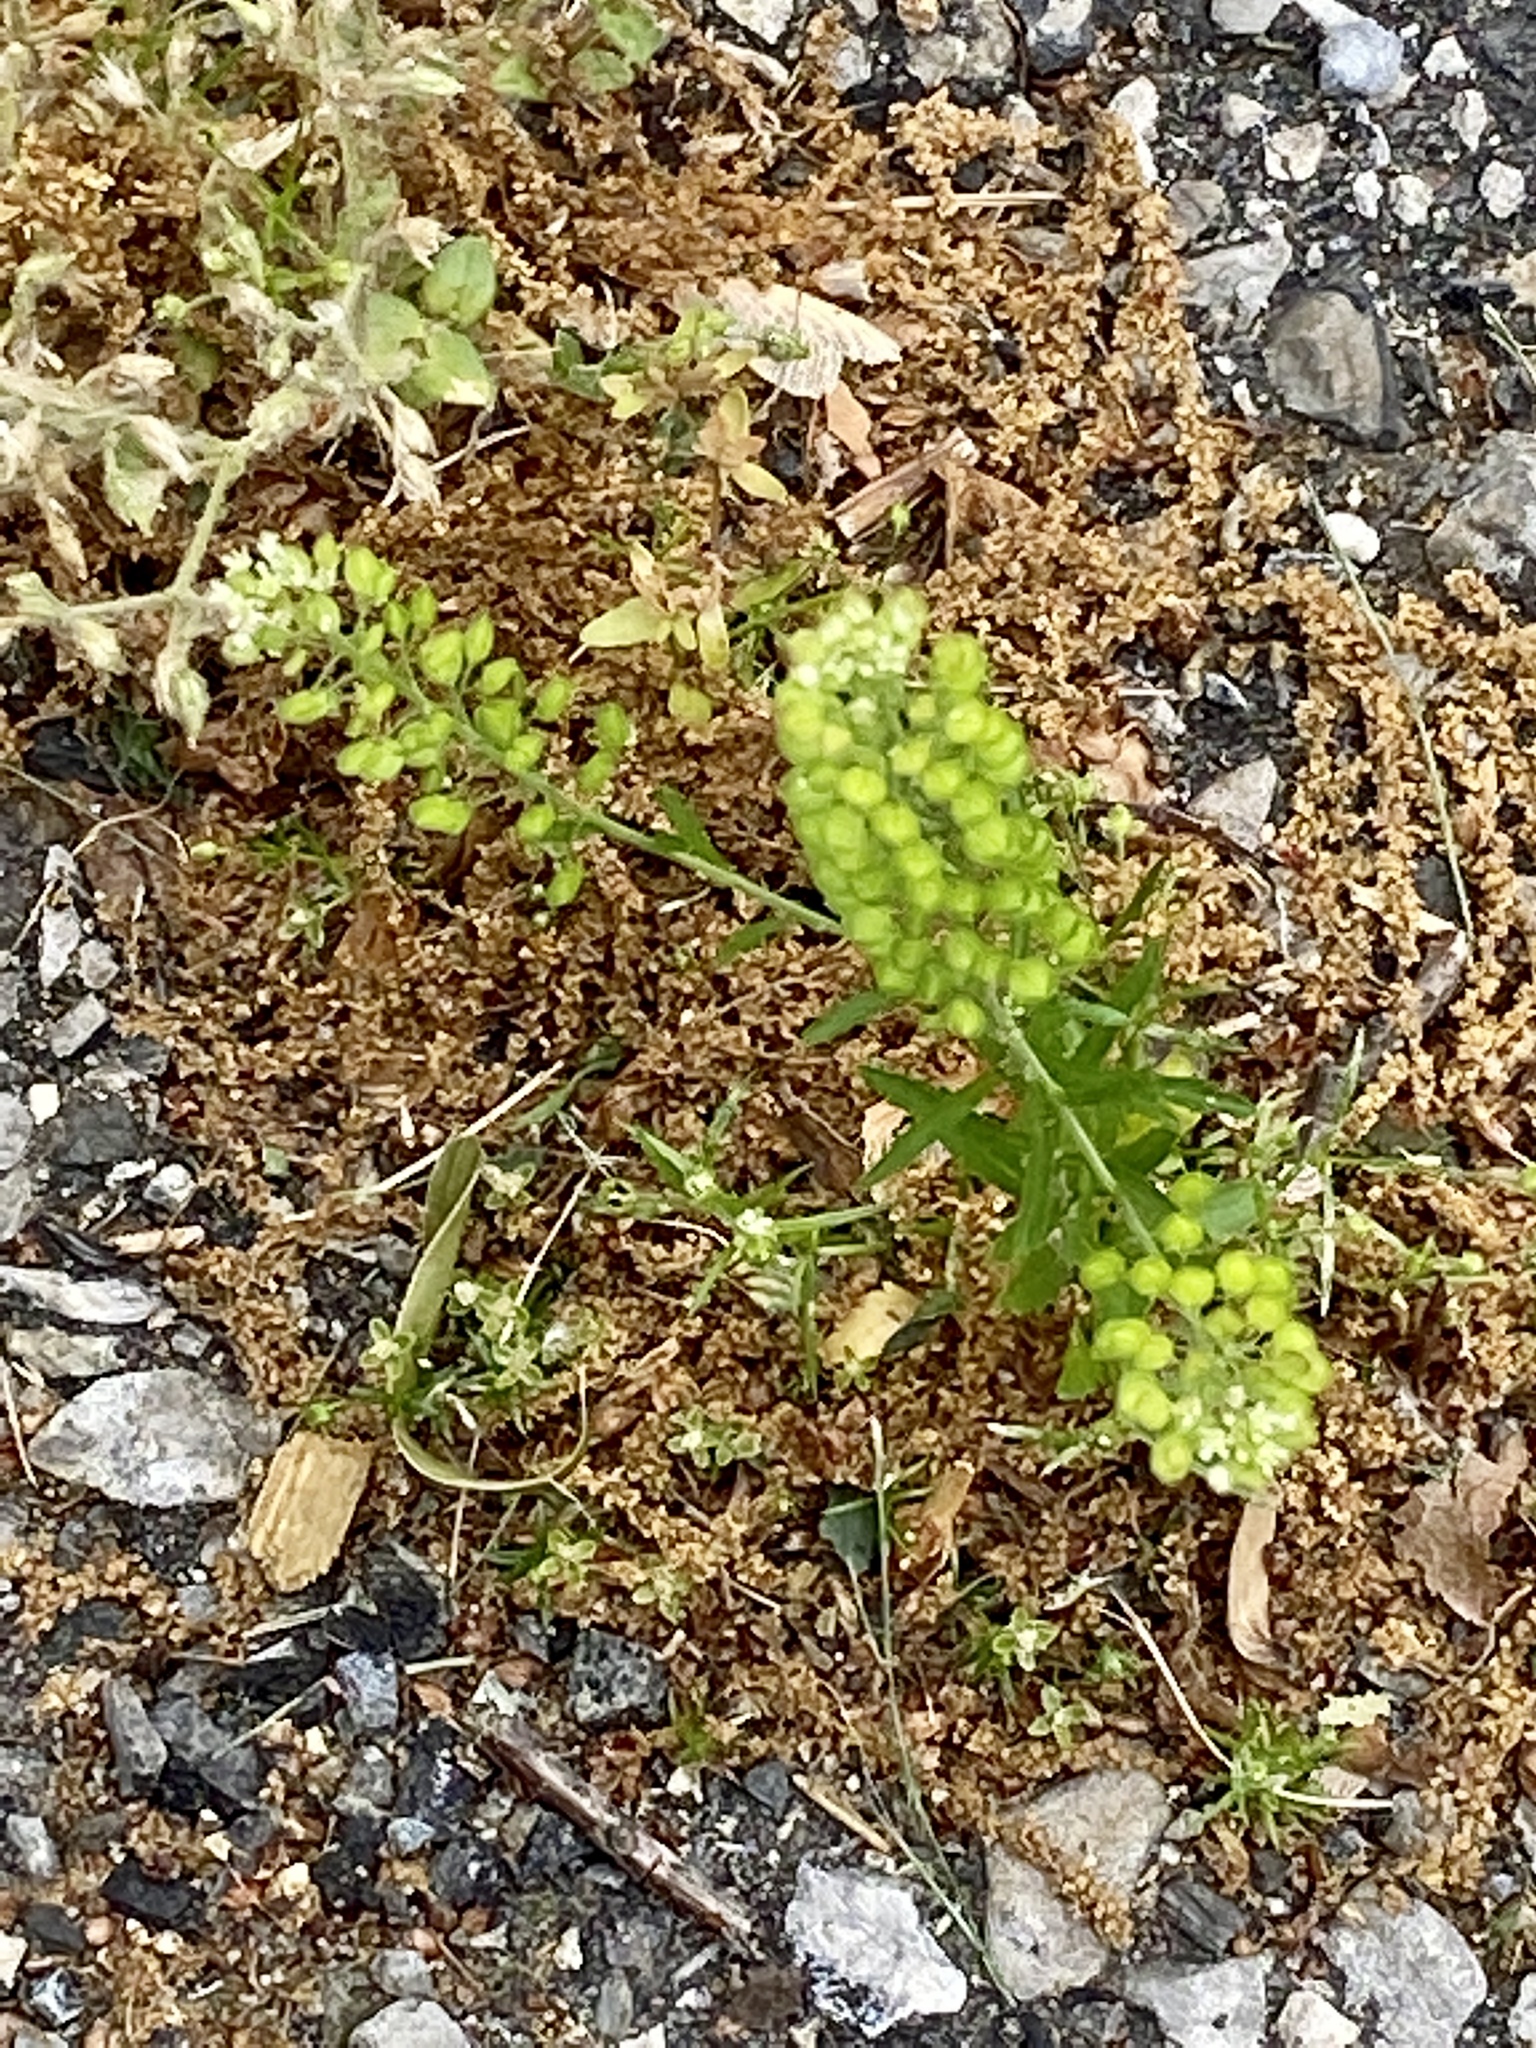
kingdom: Plantae
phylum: Tracheophyta
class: Magnoliopsida
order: Brassicales
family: Brassicaceae
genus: Lepidium
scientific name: Lepidium virginicum
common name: Least pepperwort
